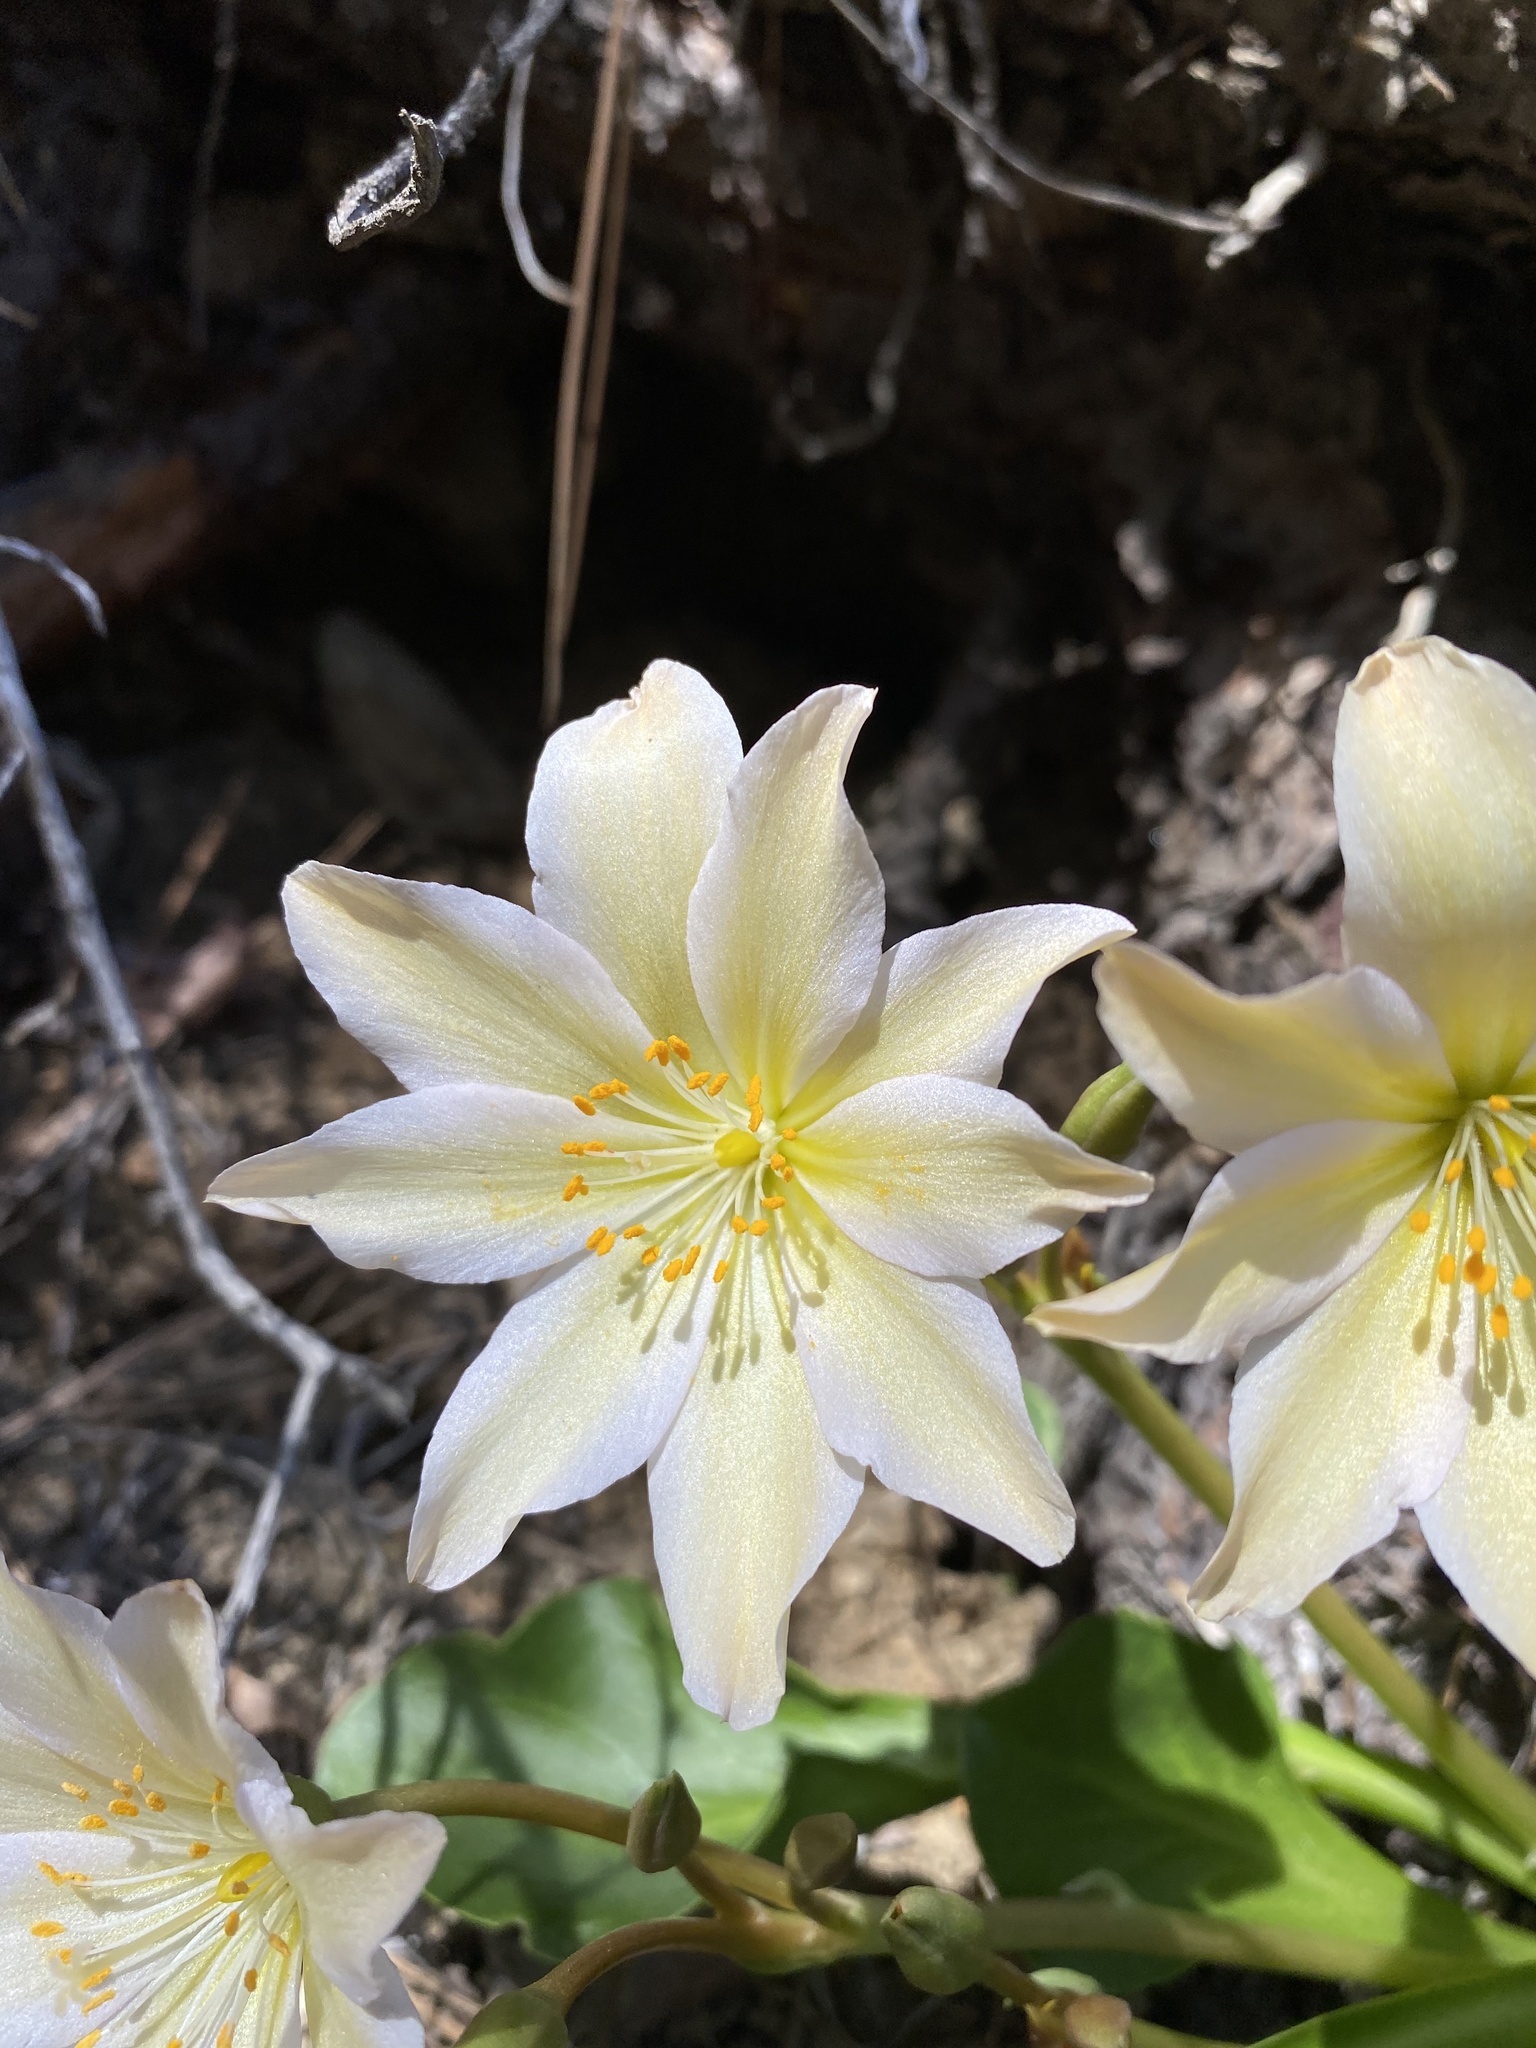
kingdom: Plantae
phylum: Tracheophyta
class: Magnoliopsida
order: Caryophyllales
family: Montiaceae
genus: Lewisiopsis
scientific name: Lewisiopsis tweedyi
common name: Tweedy's pussypaws
